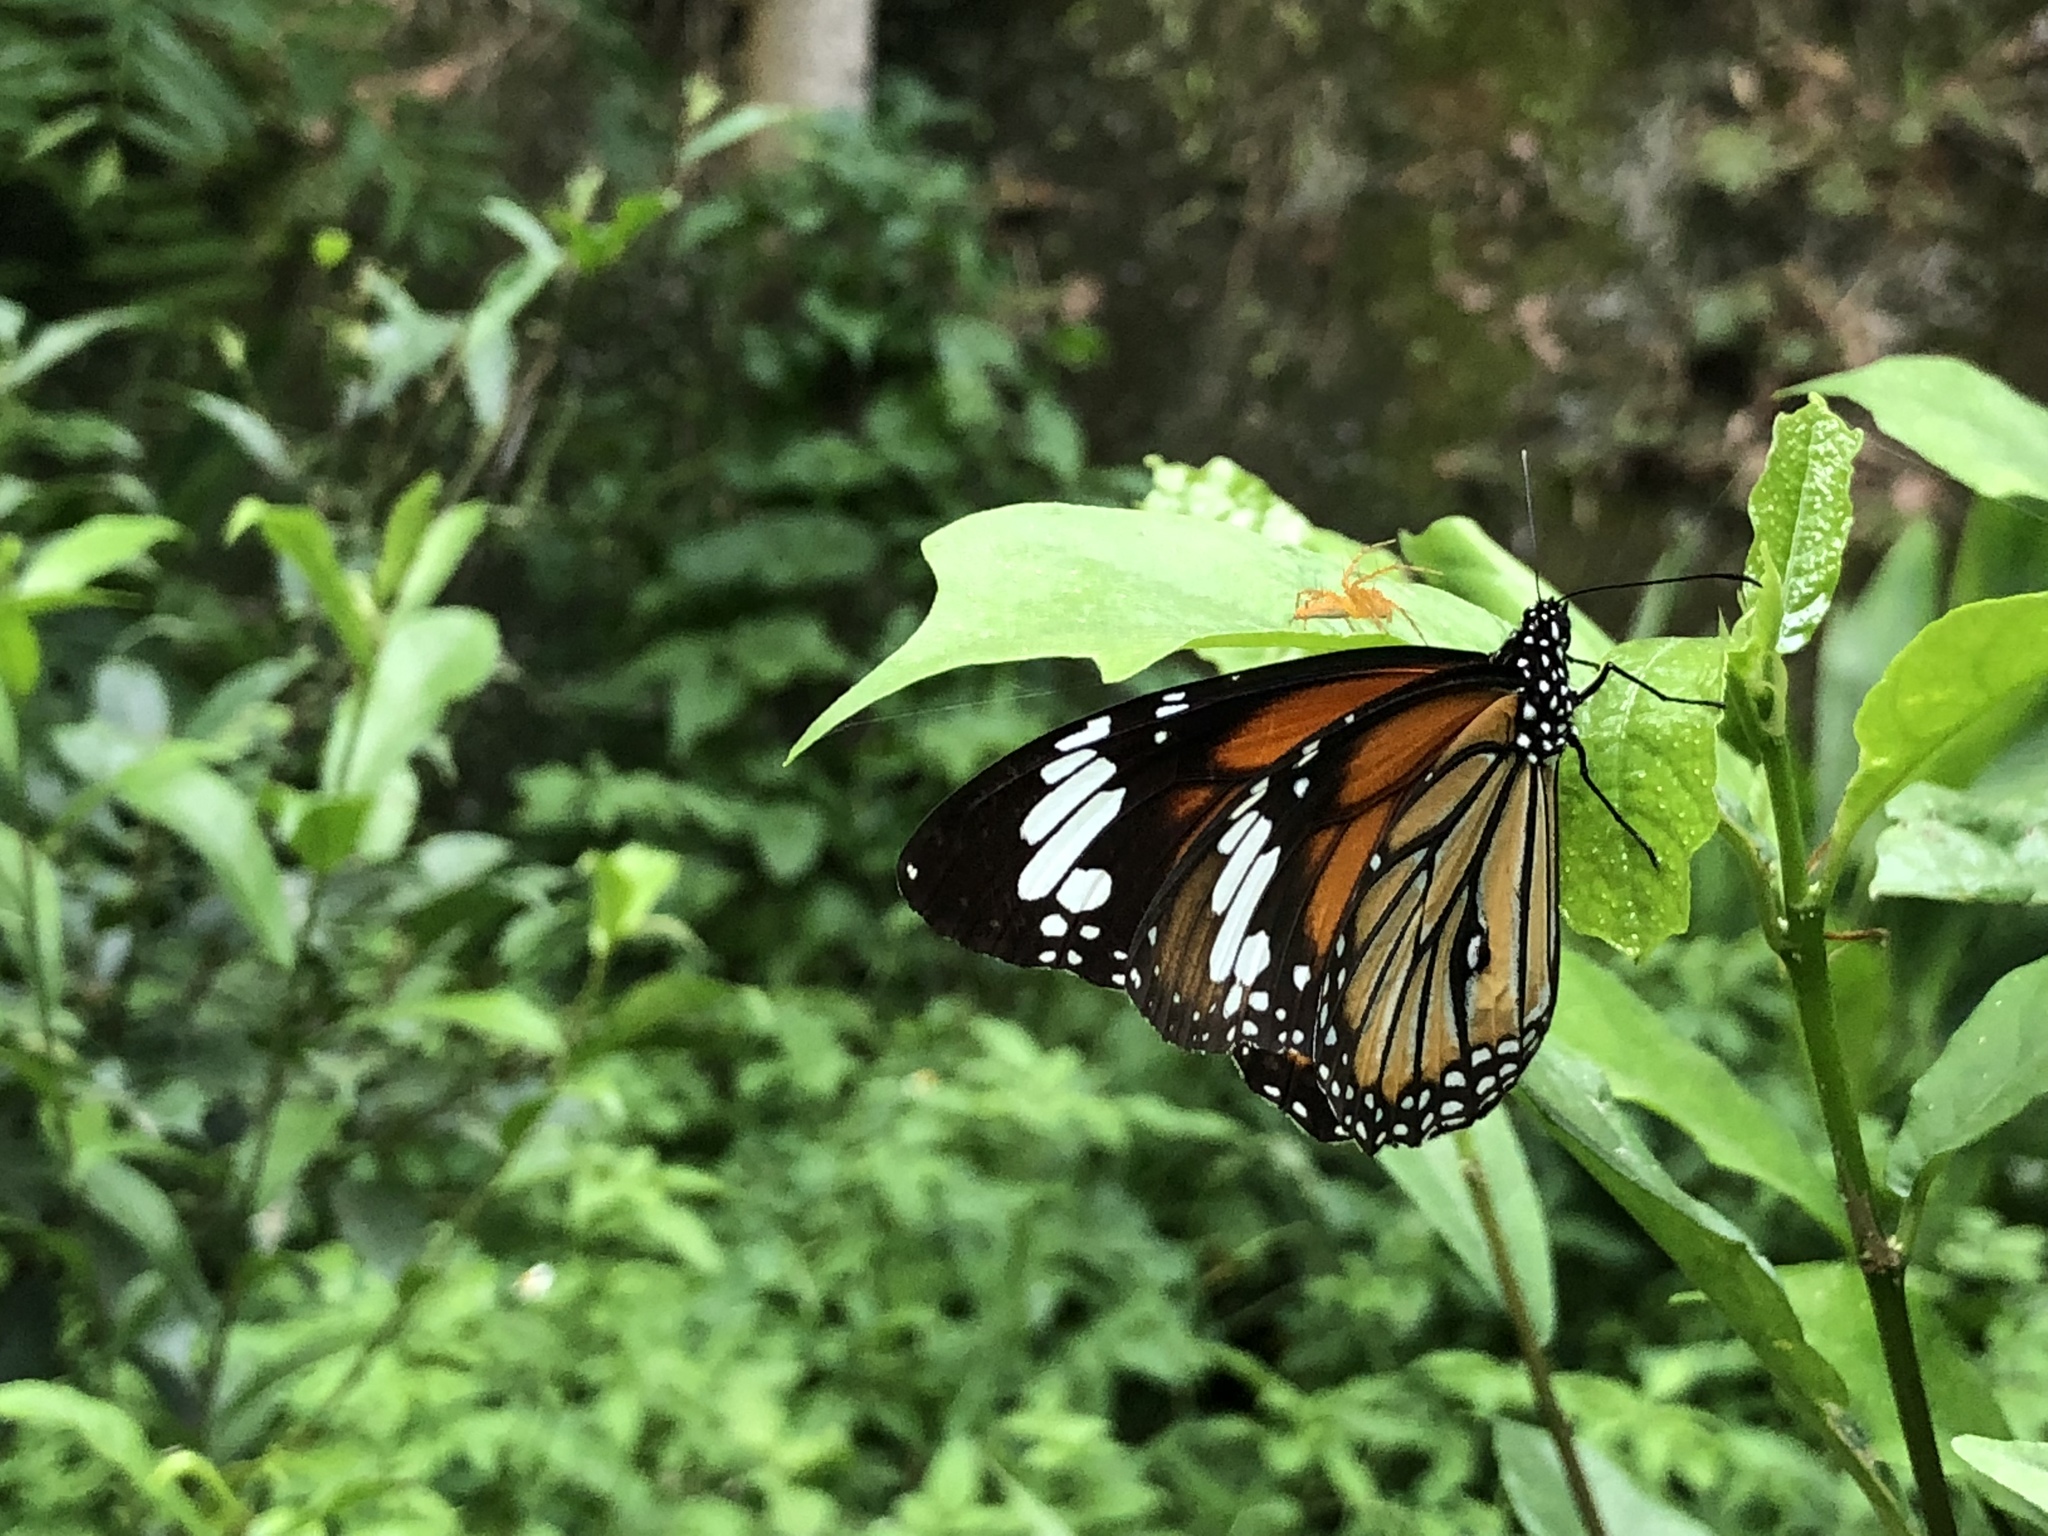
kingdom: Animalia
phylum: Arthropoda
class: Insecta
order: Lepidoptera
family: Nymphalidae
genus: Danaus
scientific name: Danaus genutia
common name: Common tiger butterfly
